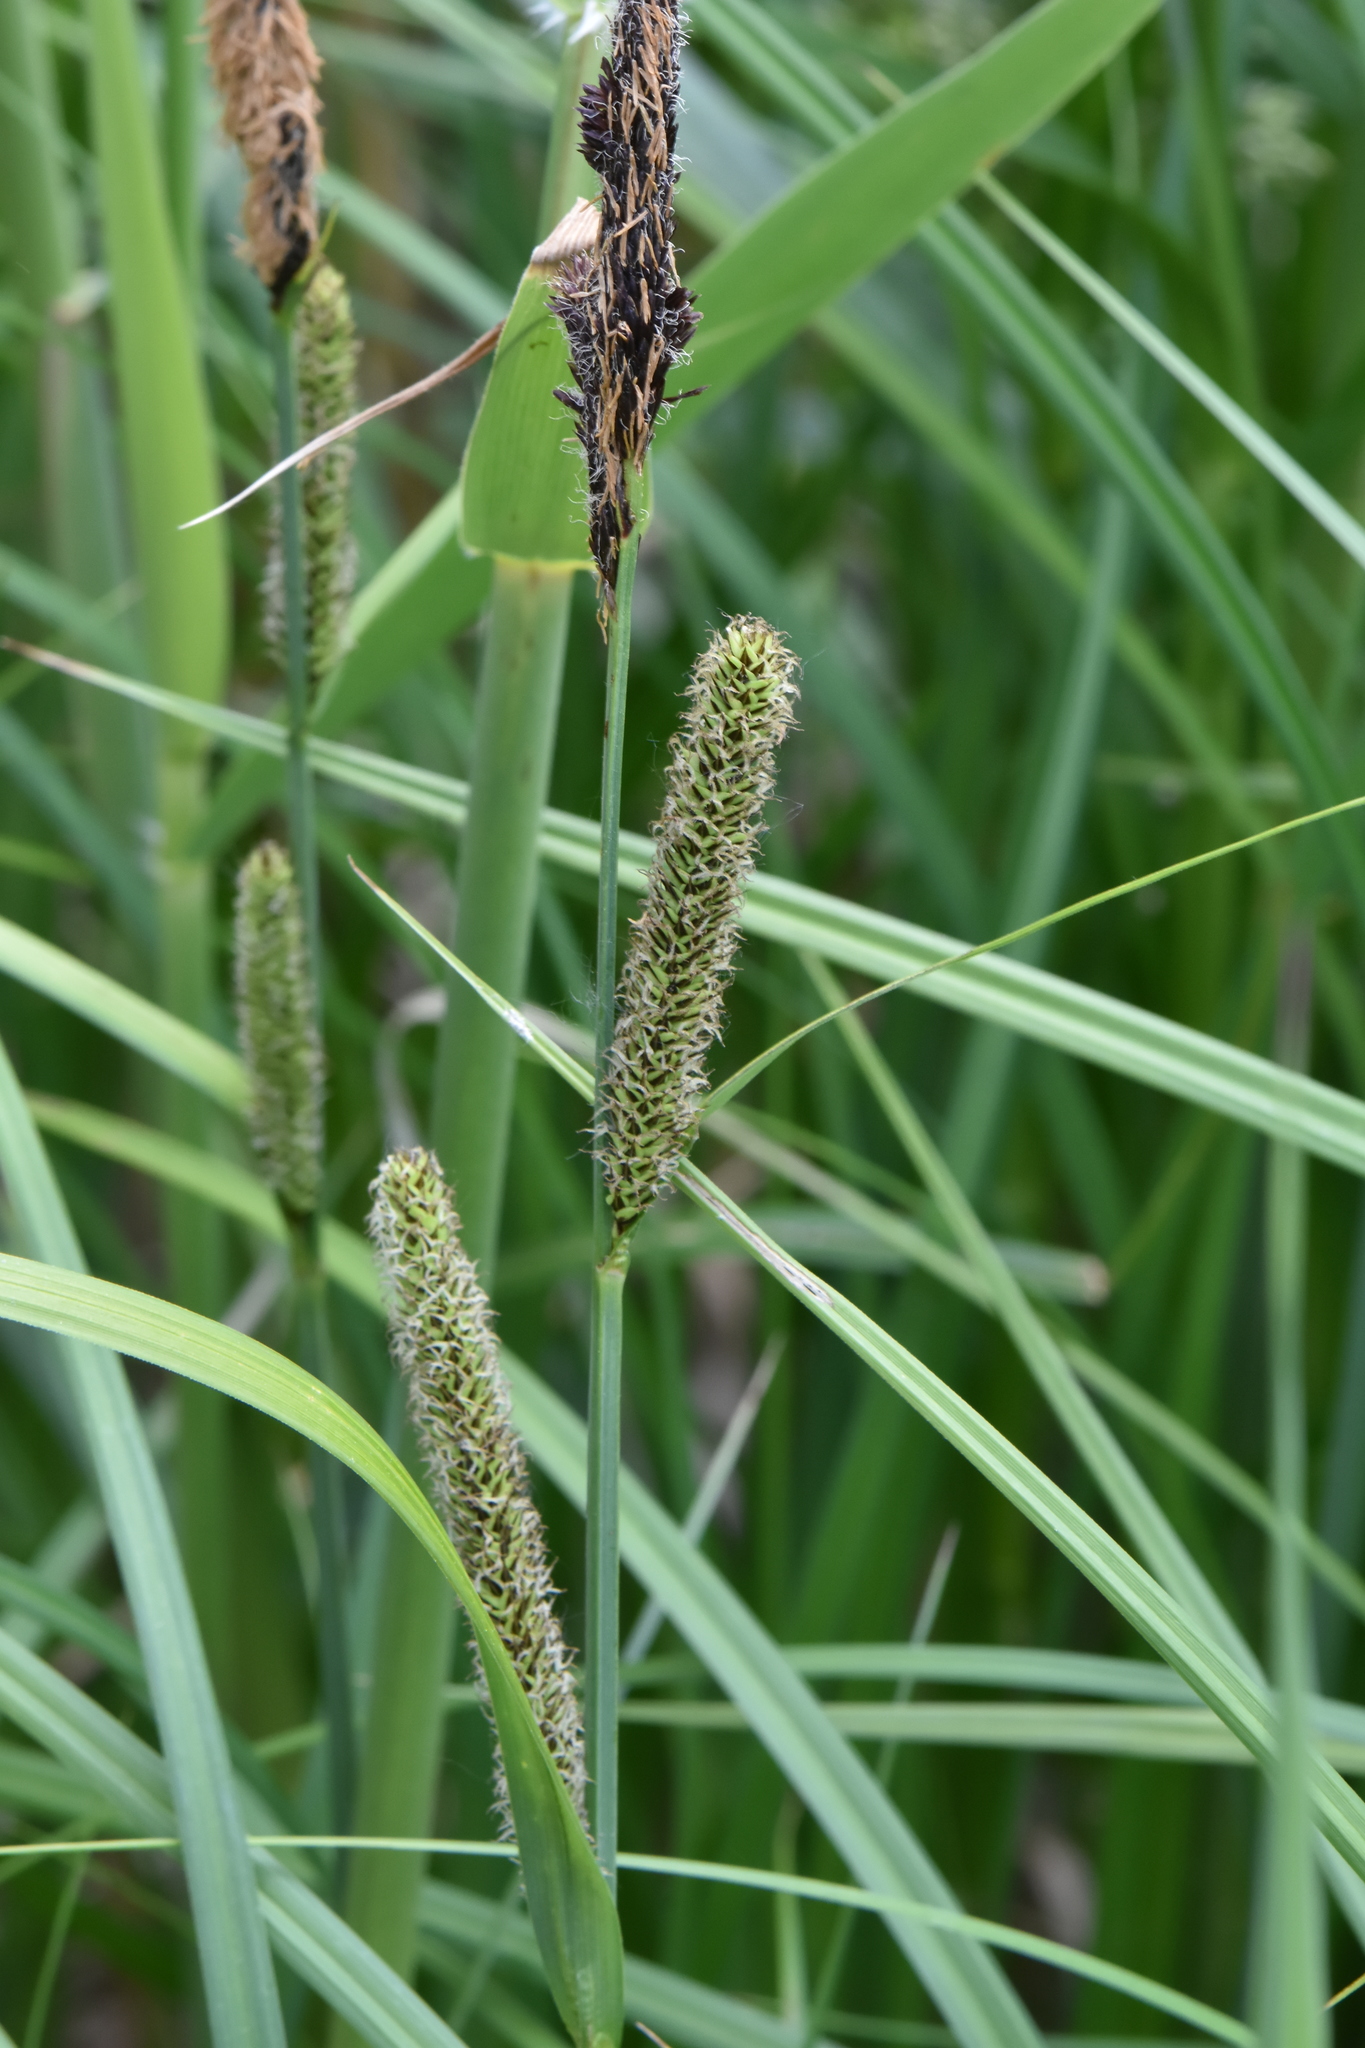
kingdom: Plantae
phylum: Tracheophyta
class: Liliopsida
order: Poales
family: Cyperaceae
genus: Carex
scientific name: Carex acutiformis
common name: Lesser pond-sedge
